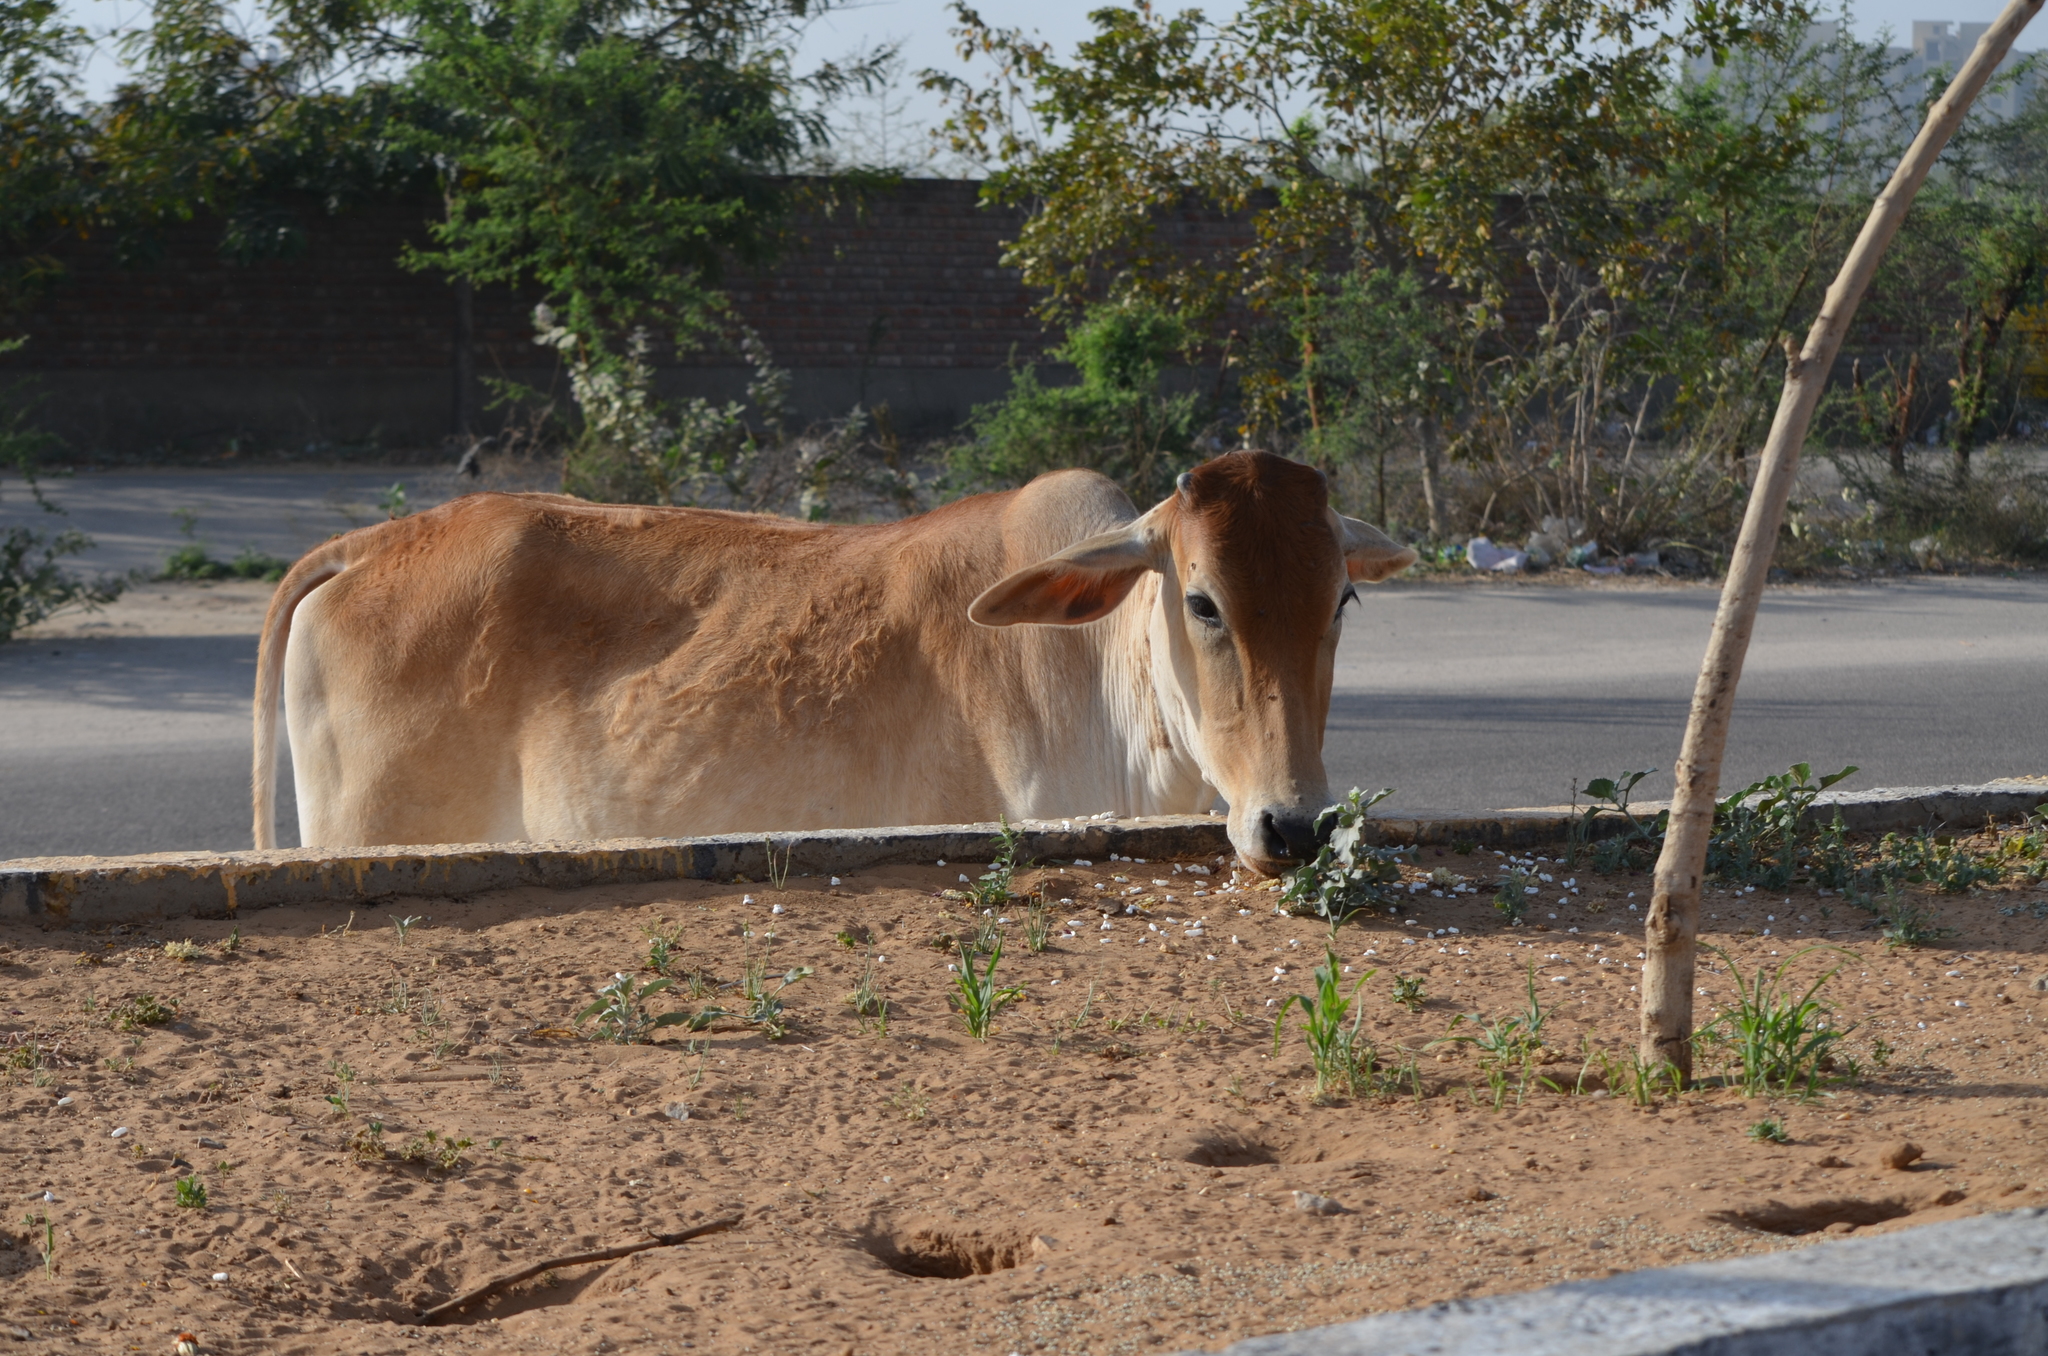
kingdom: Animalia
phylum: Chordata
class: Mammalia
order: Artiodactyla
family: Bovidae
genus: Bos
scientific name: Bos taurus
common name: Domesticated cattle
